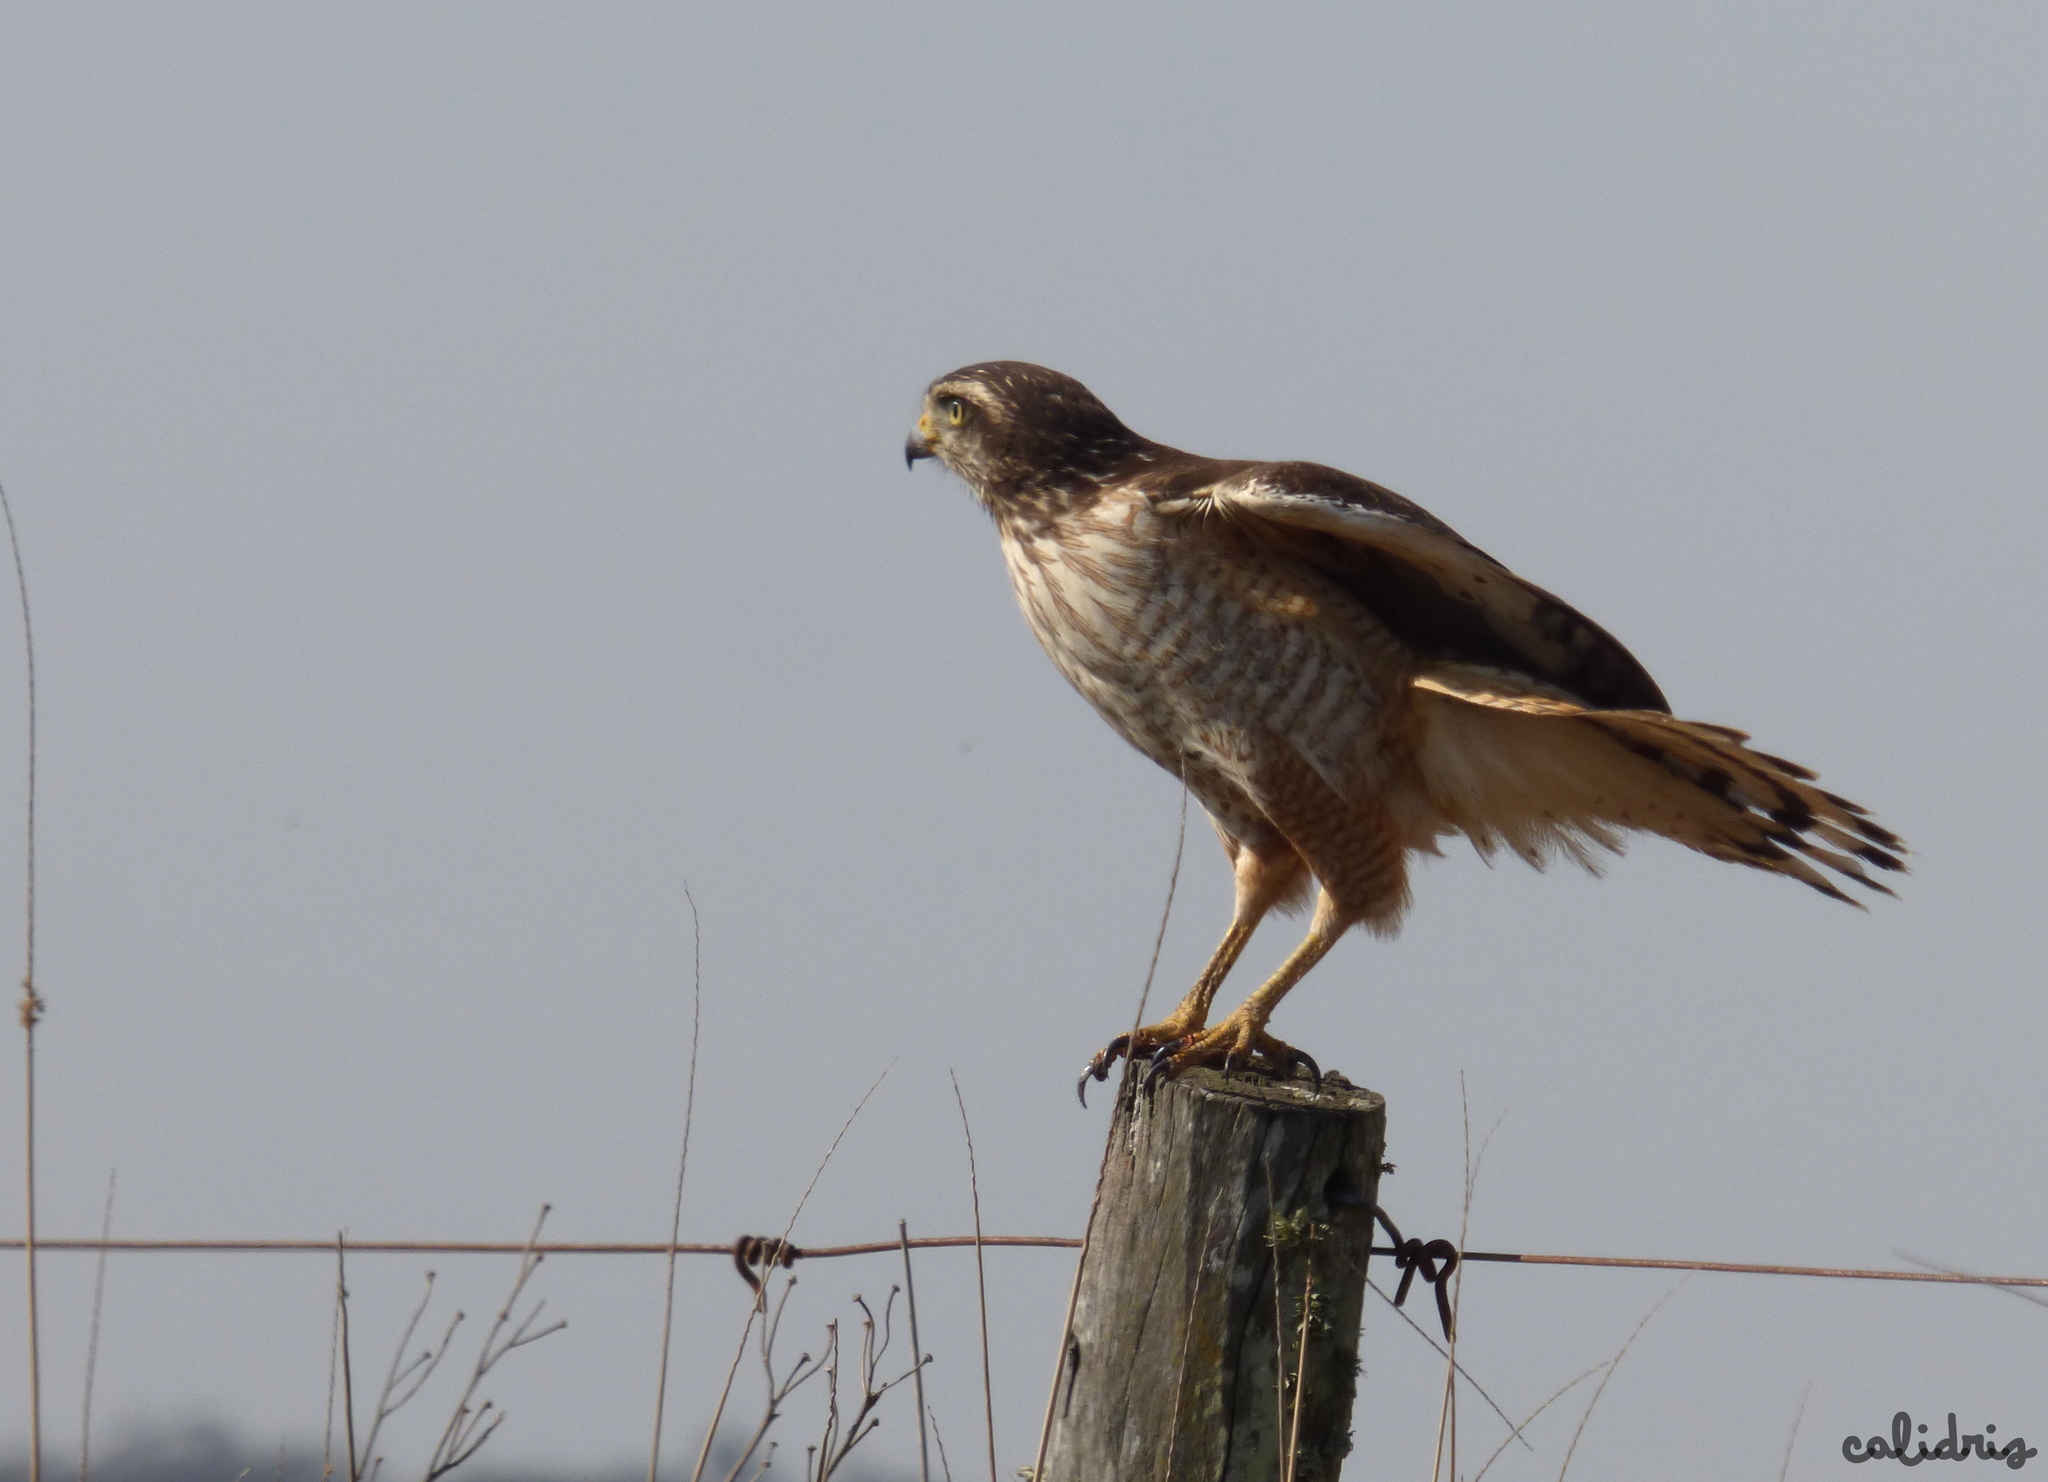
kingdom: Animalia
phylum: Chordata
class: Aves
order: Accipitriformes
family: Accipitridae
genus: Rupornis
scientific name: Rupornis magnirostris
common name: Roadside hawk
